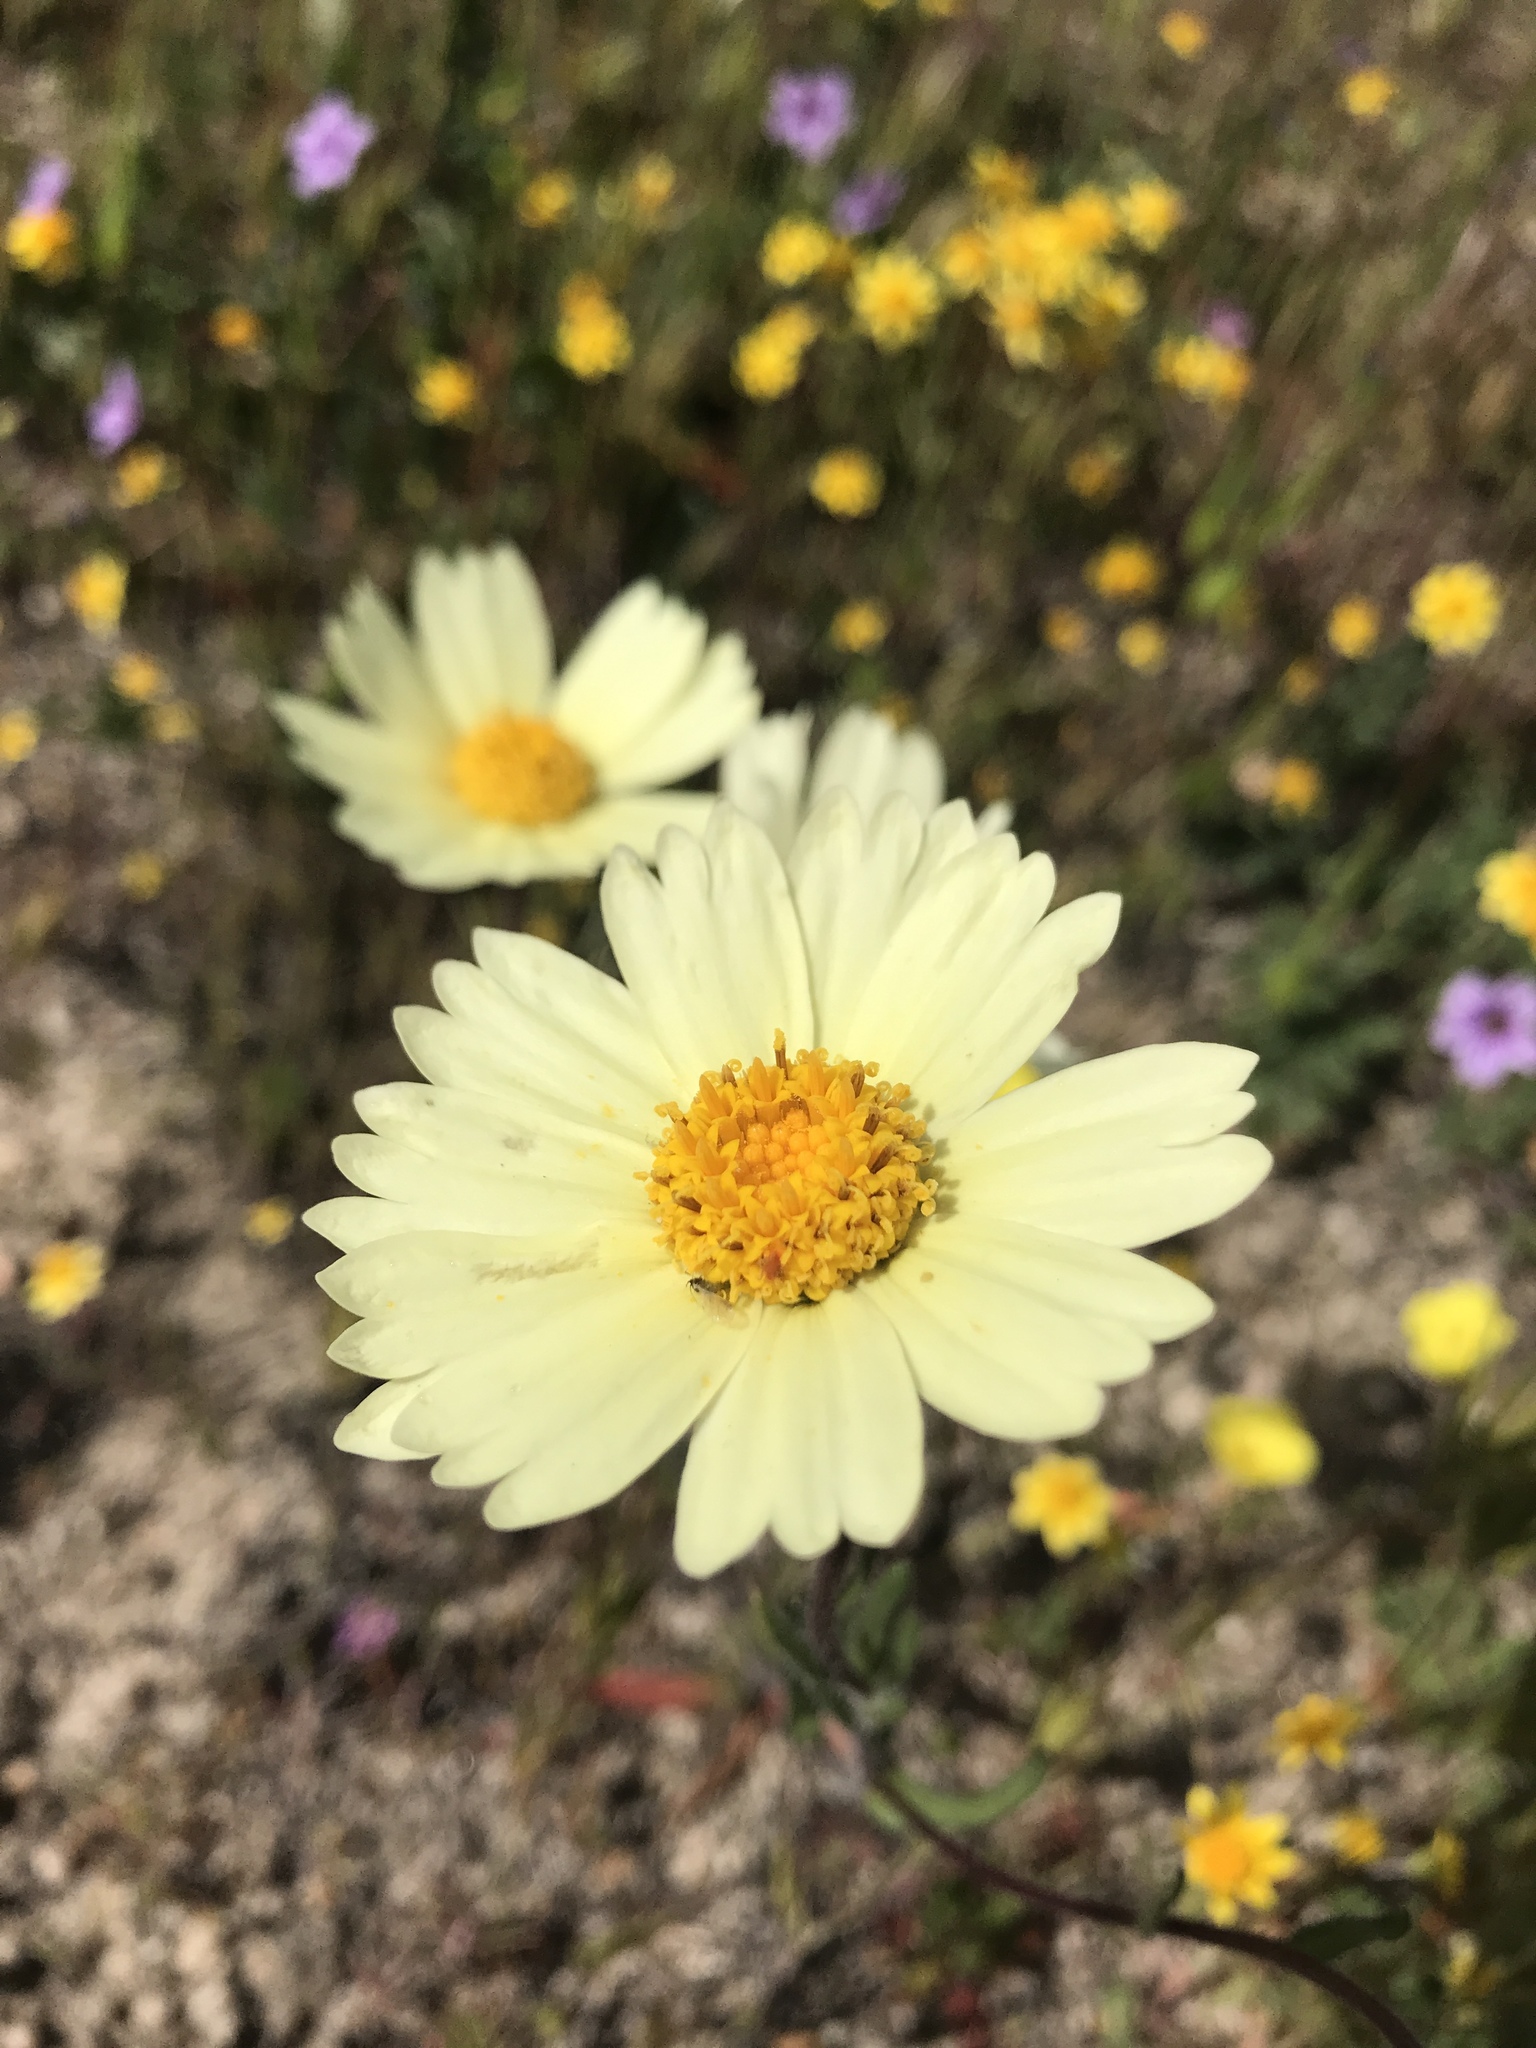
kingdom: Plantae
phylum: Tracheophyta
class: Magnoliopsida
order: Asterales
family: Asteraceae
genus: Layia
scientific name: Layia glandulosa
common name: White layia
